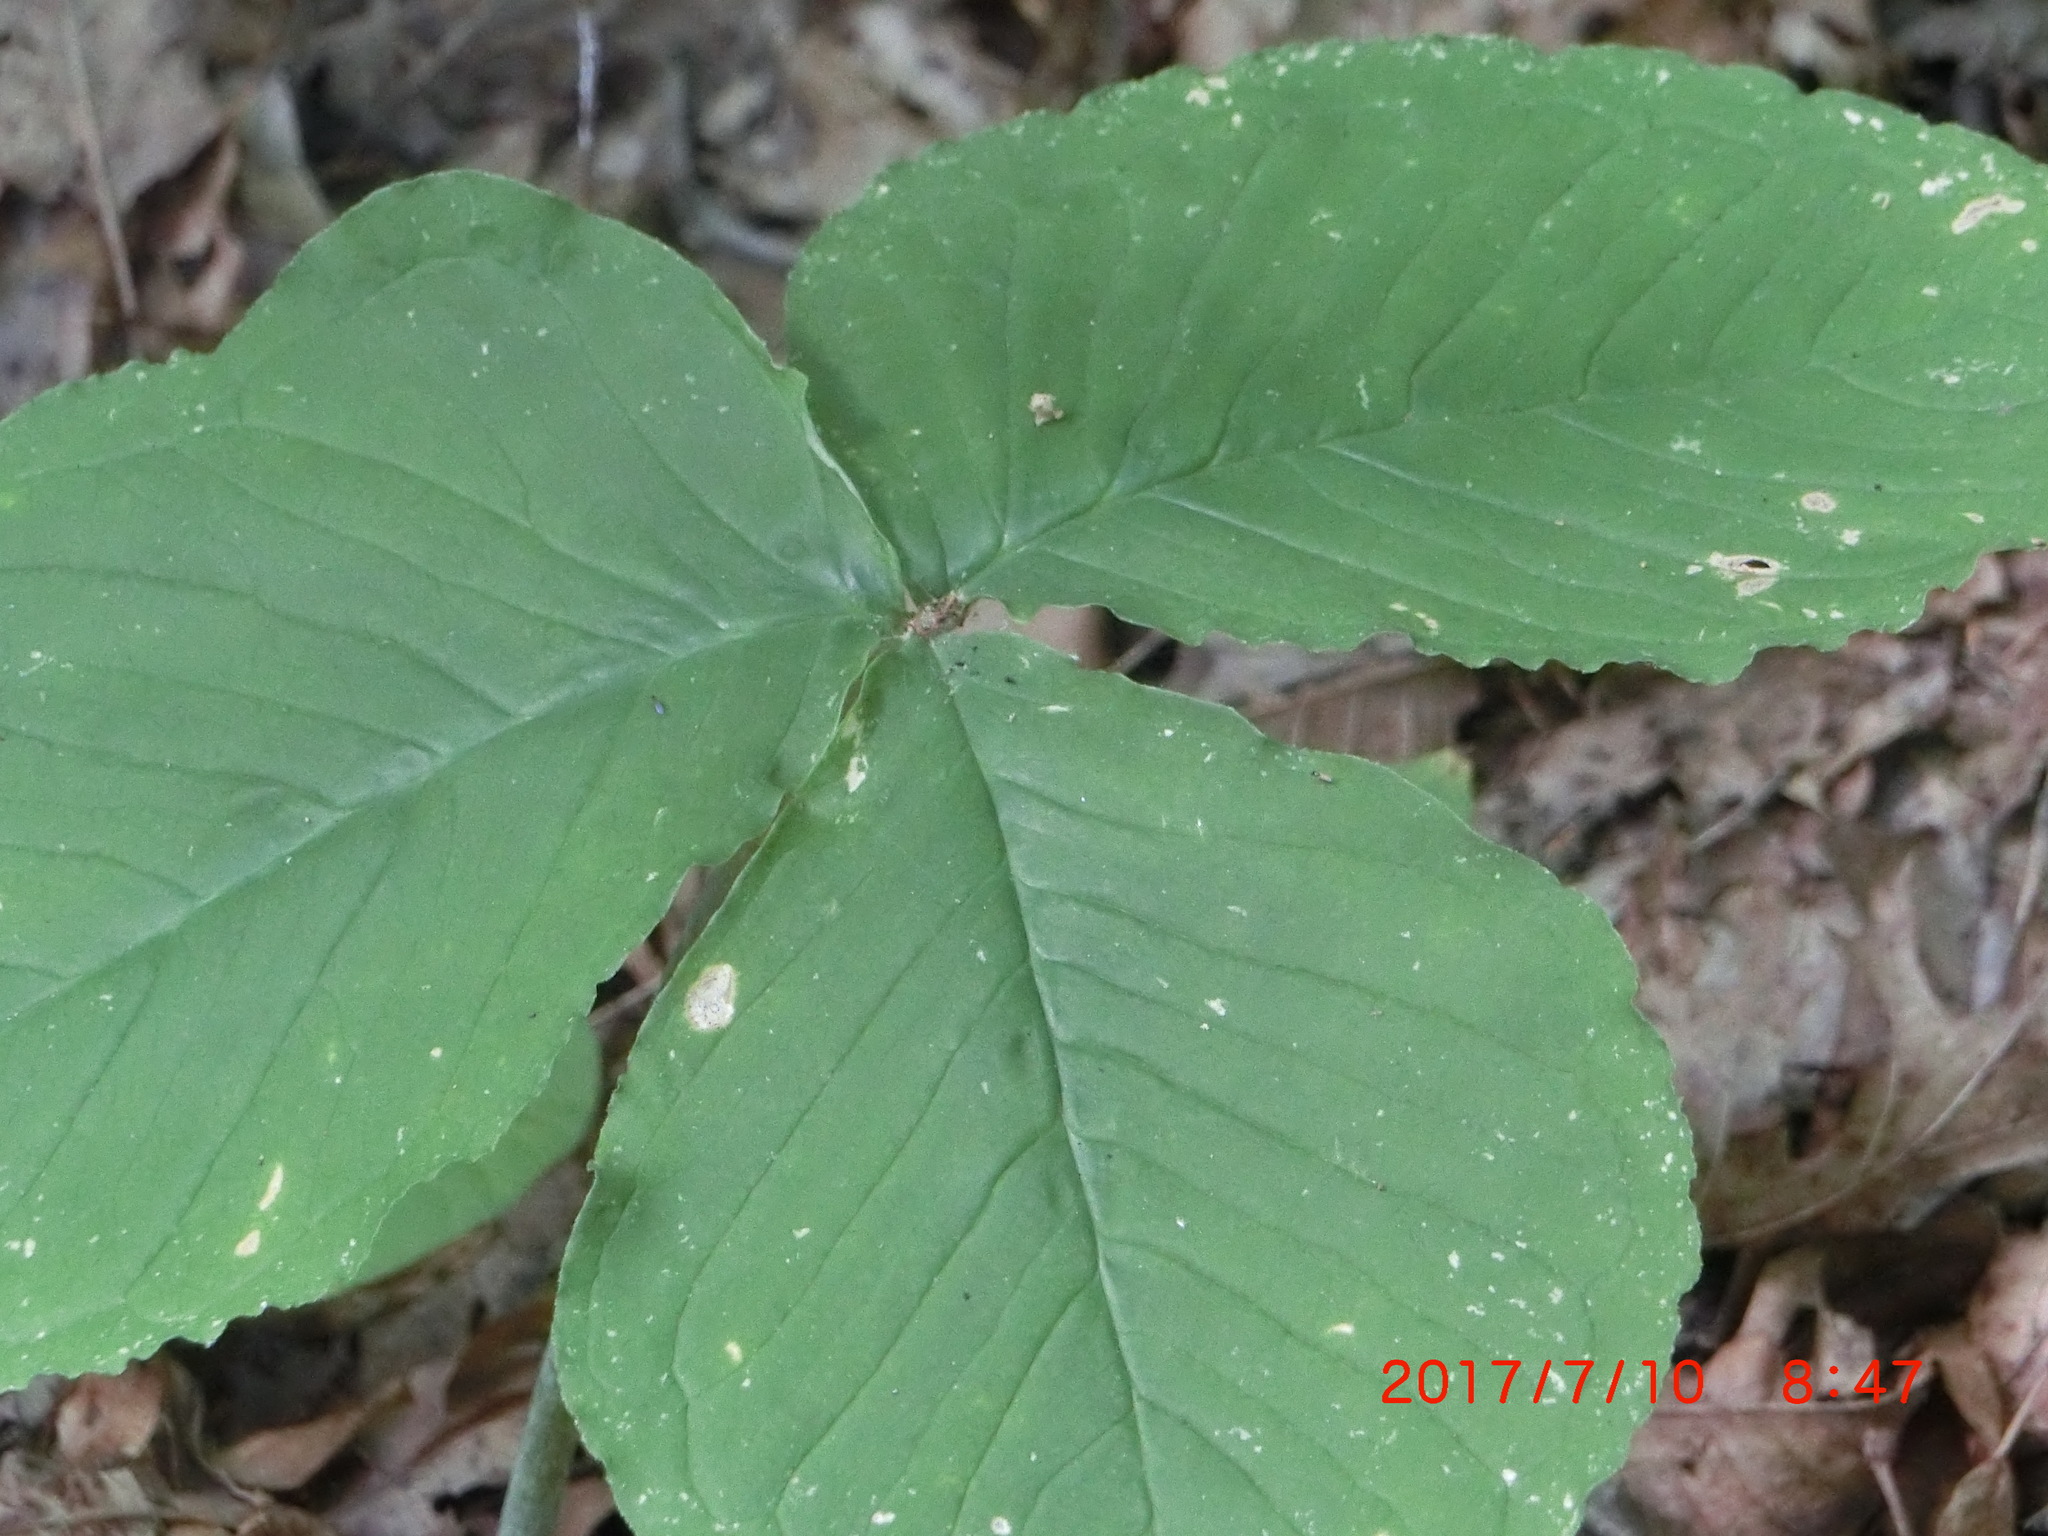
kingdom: Plantae
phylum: Tracheophyta
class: Liliopsida
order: Alismatales
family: Araceae
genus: Arisaema
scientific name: Arisaema triphyllum
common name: Jack-in-the-pulpit
